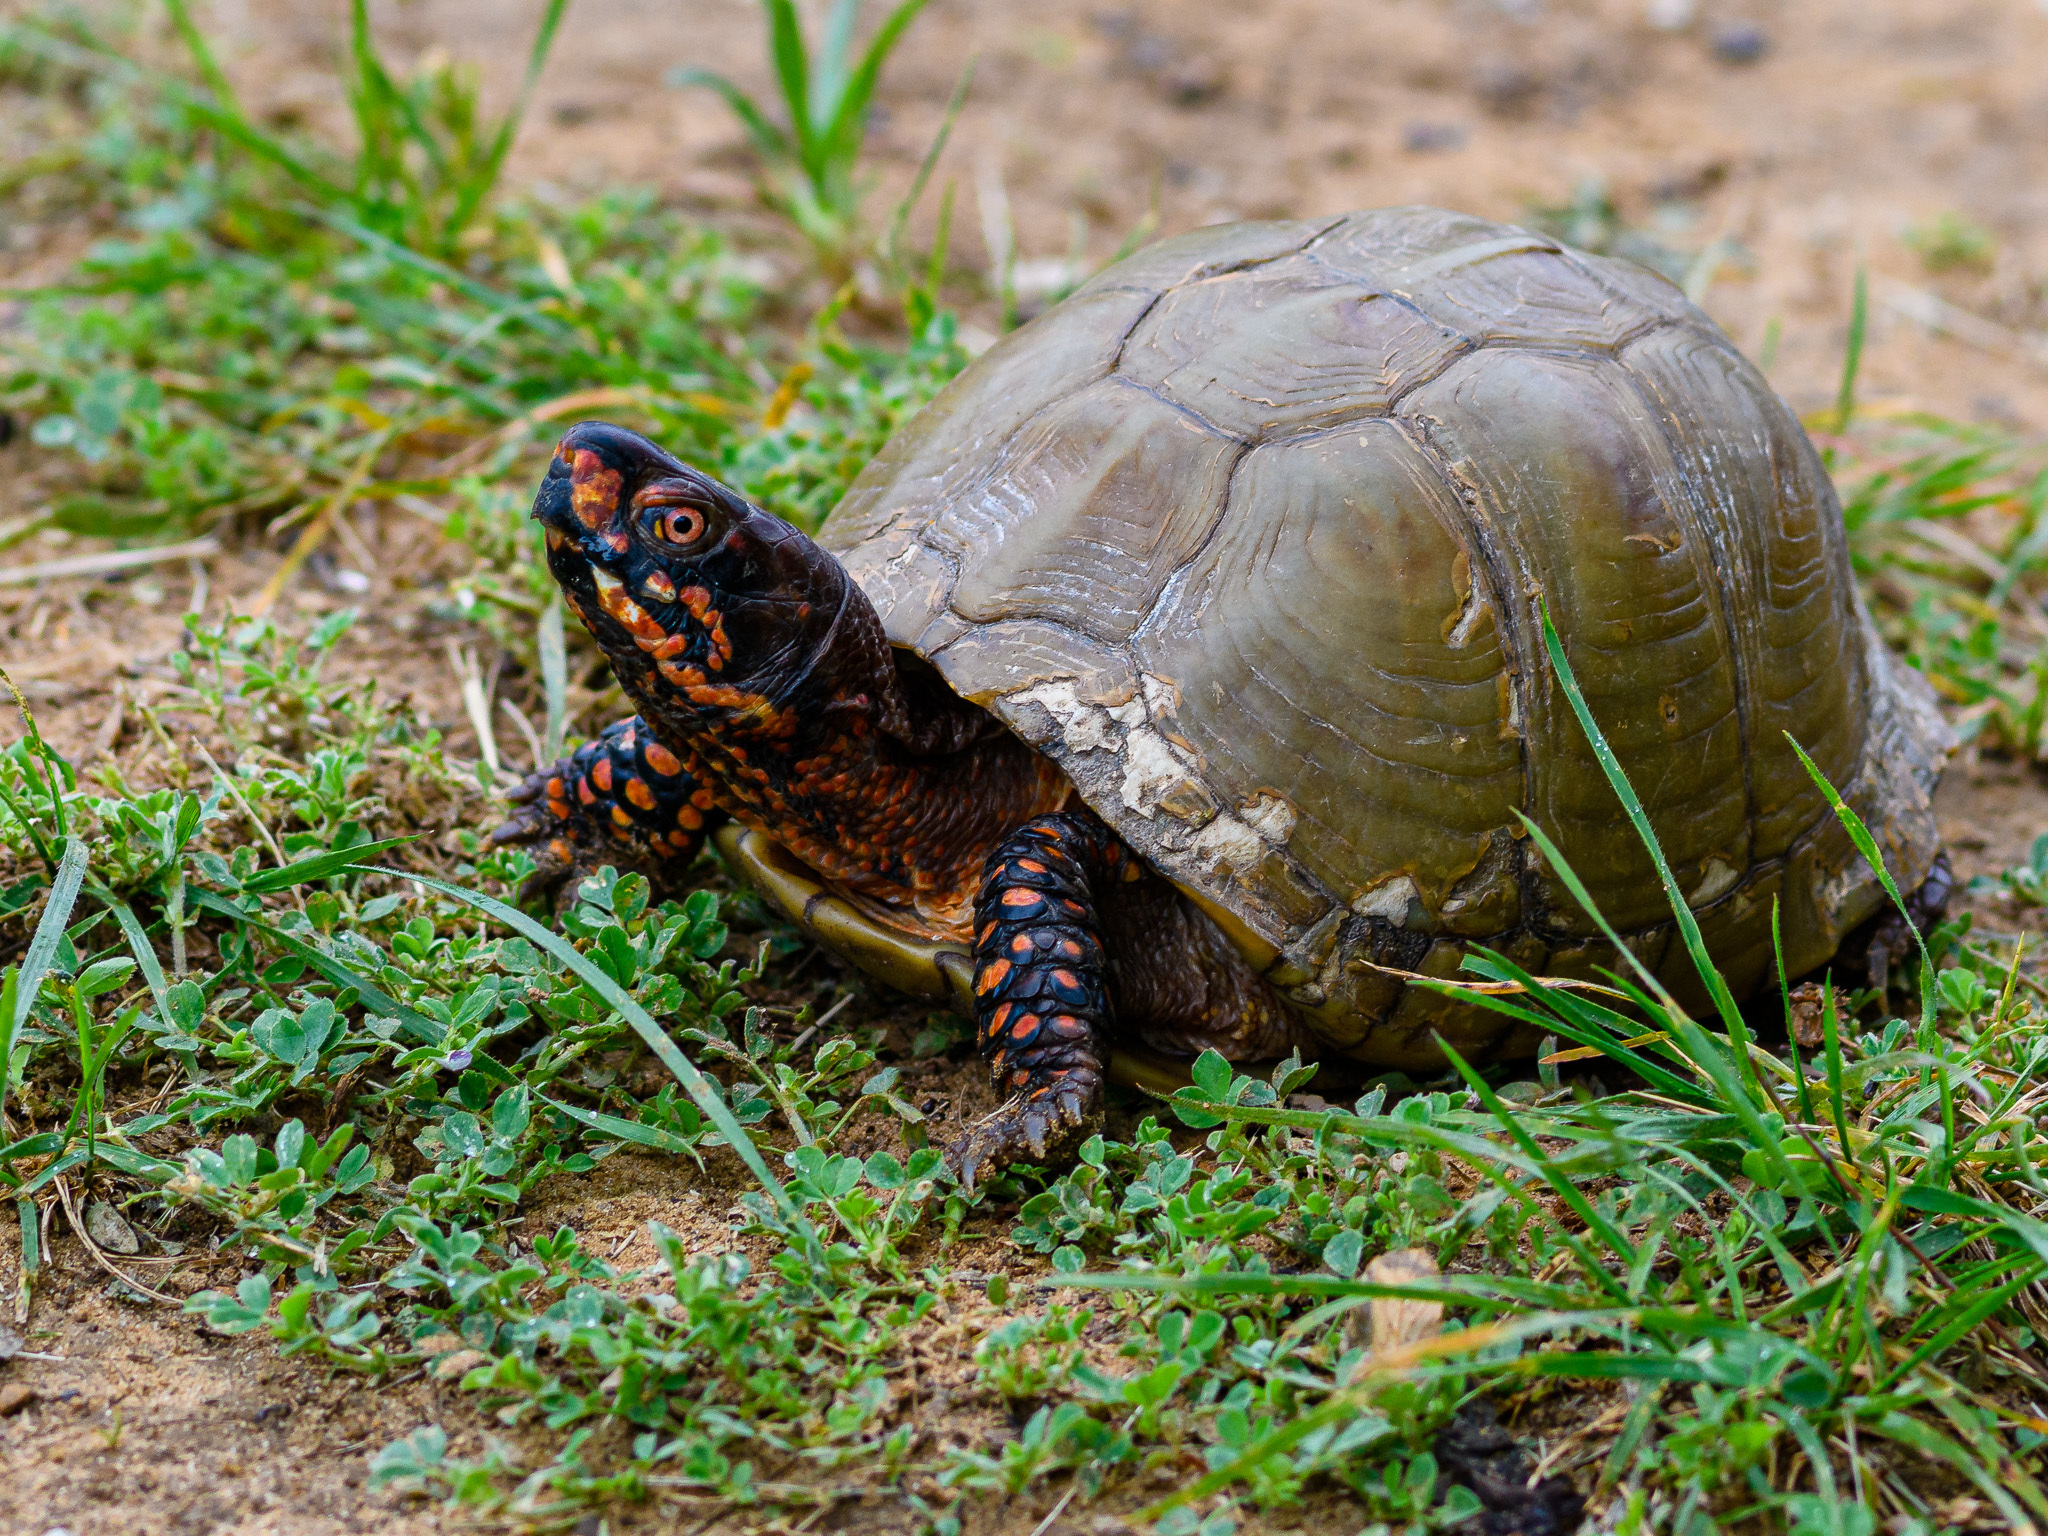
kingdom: Animalia
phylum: Chordata
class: Testudines
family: Emydidae
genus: Terrapene
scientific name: Terrapene carolina
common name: Common box turtle
